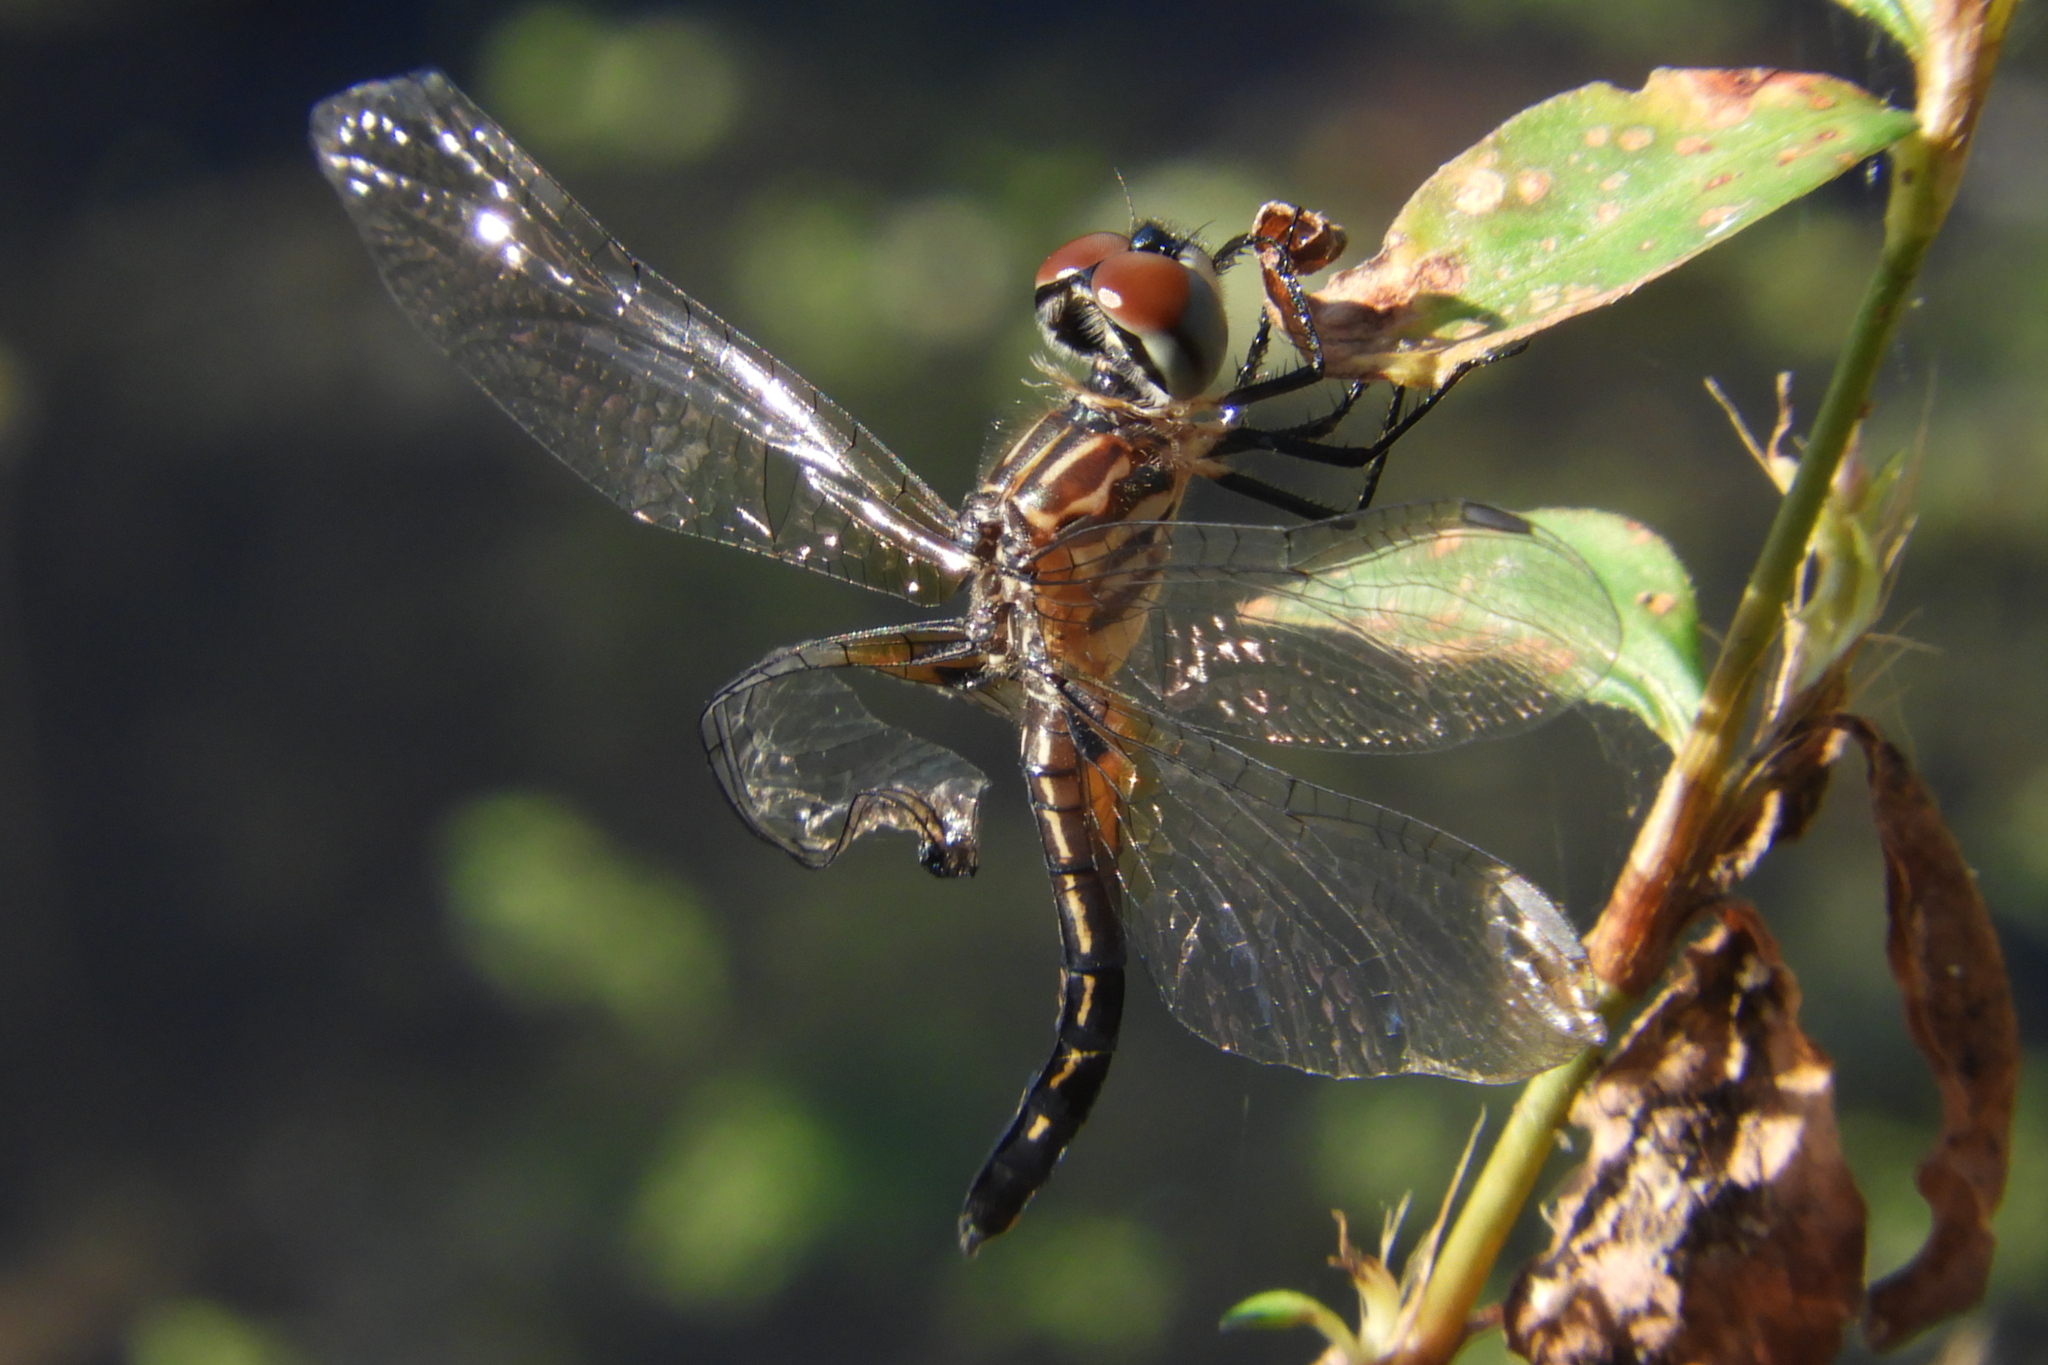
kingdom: Animalia
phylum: Arthropoda
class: Insecta
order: Odonata
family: Libellulidae
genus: Pachydiplax
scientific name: Pachydiplax longipennis
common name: Blue dasher
